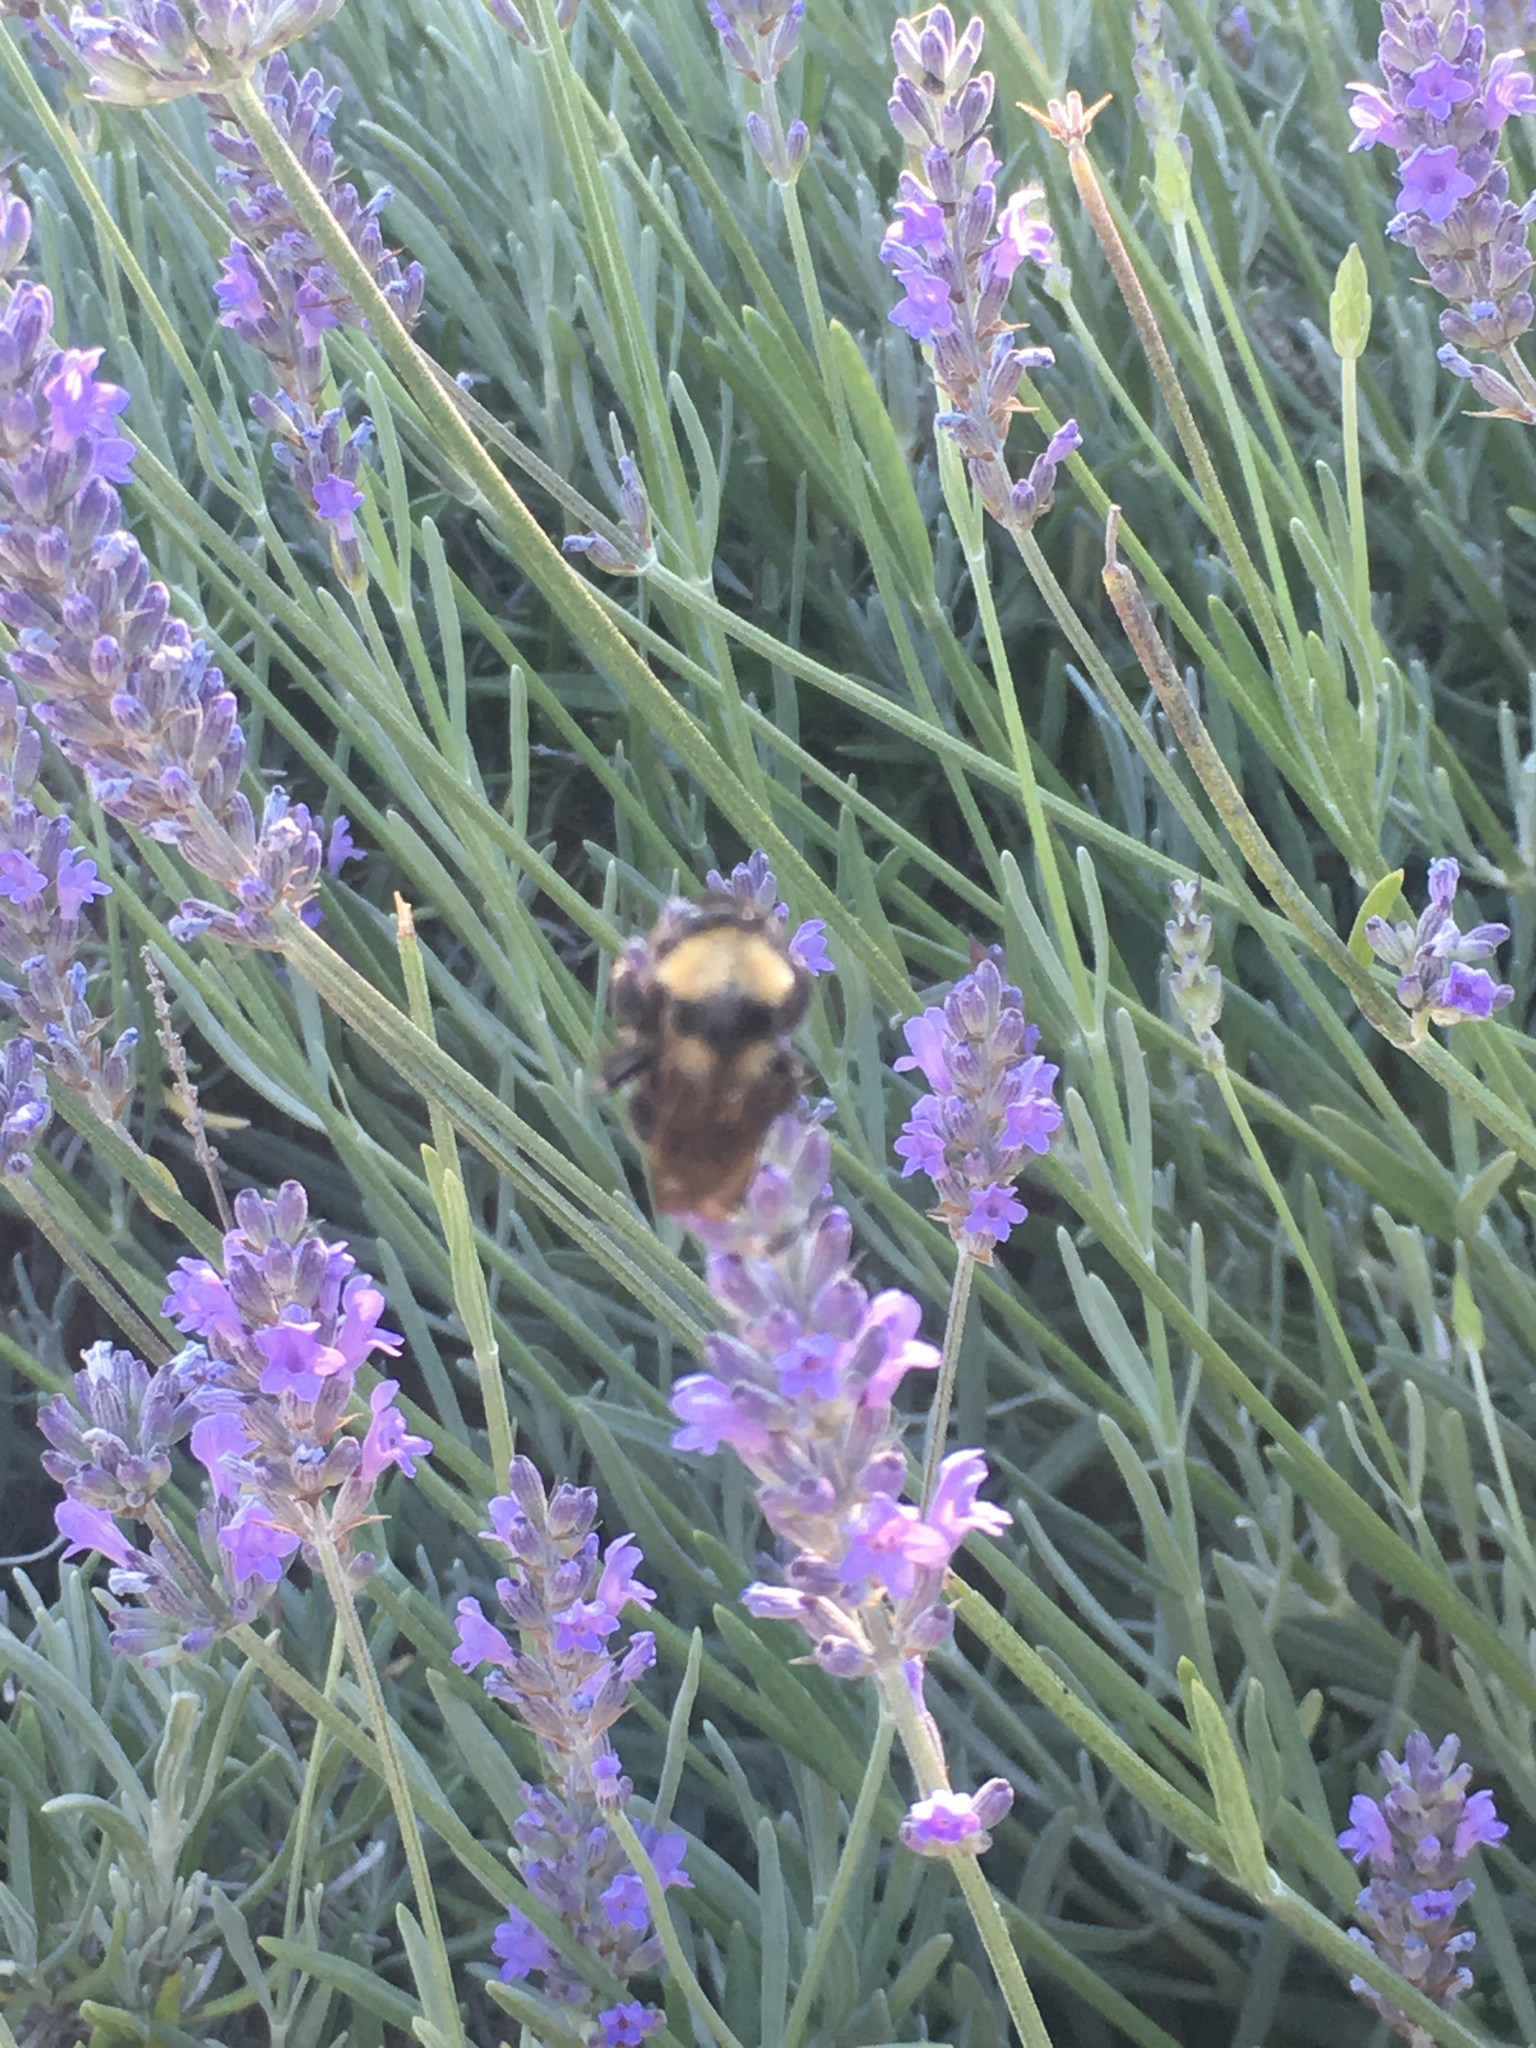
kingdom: Animalia
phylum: Arthropoda
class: Insecta
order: Hymenoptera
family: Apidae
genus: Bombus
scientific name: Bombus californicus
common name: California bumble bee
